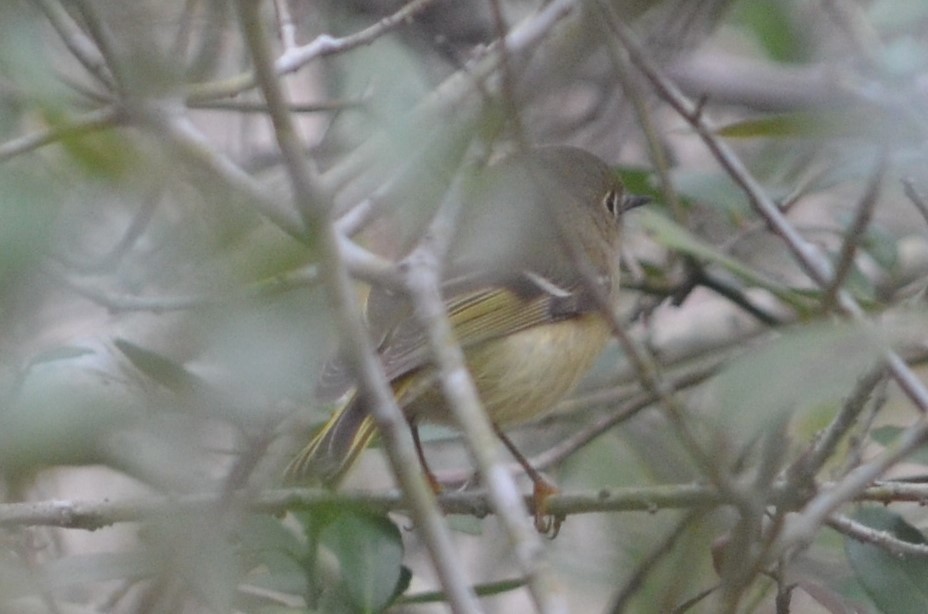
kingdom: Animalia
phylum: Chordata
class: Aves
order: Passeriformes
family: Regulidae
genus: Regulus
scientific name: Regulus calendula
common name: Ruby-crowned kinglet
